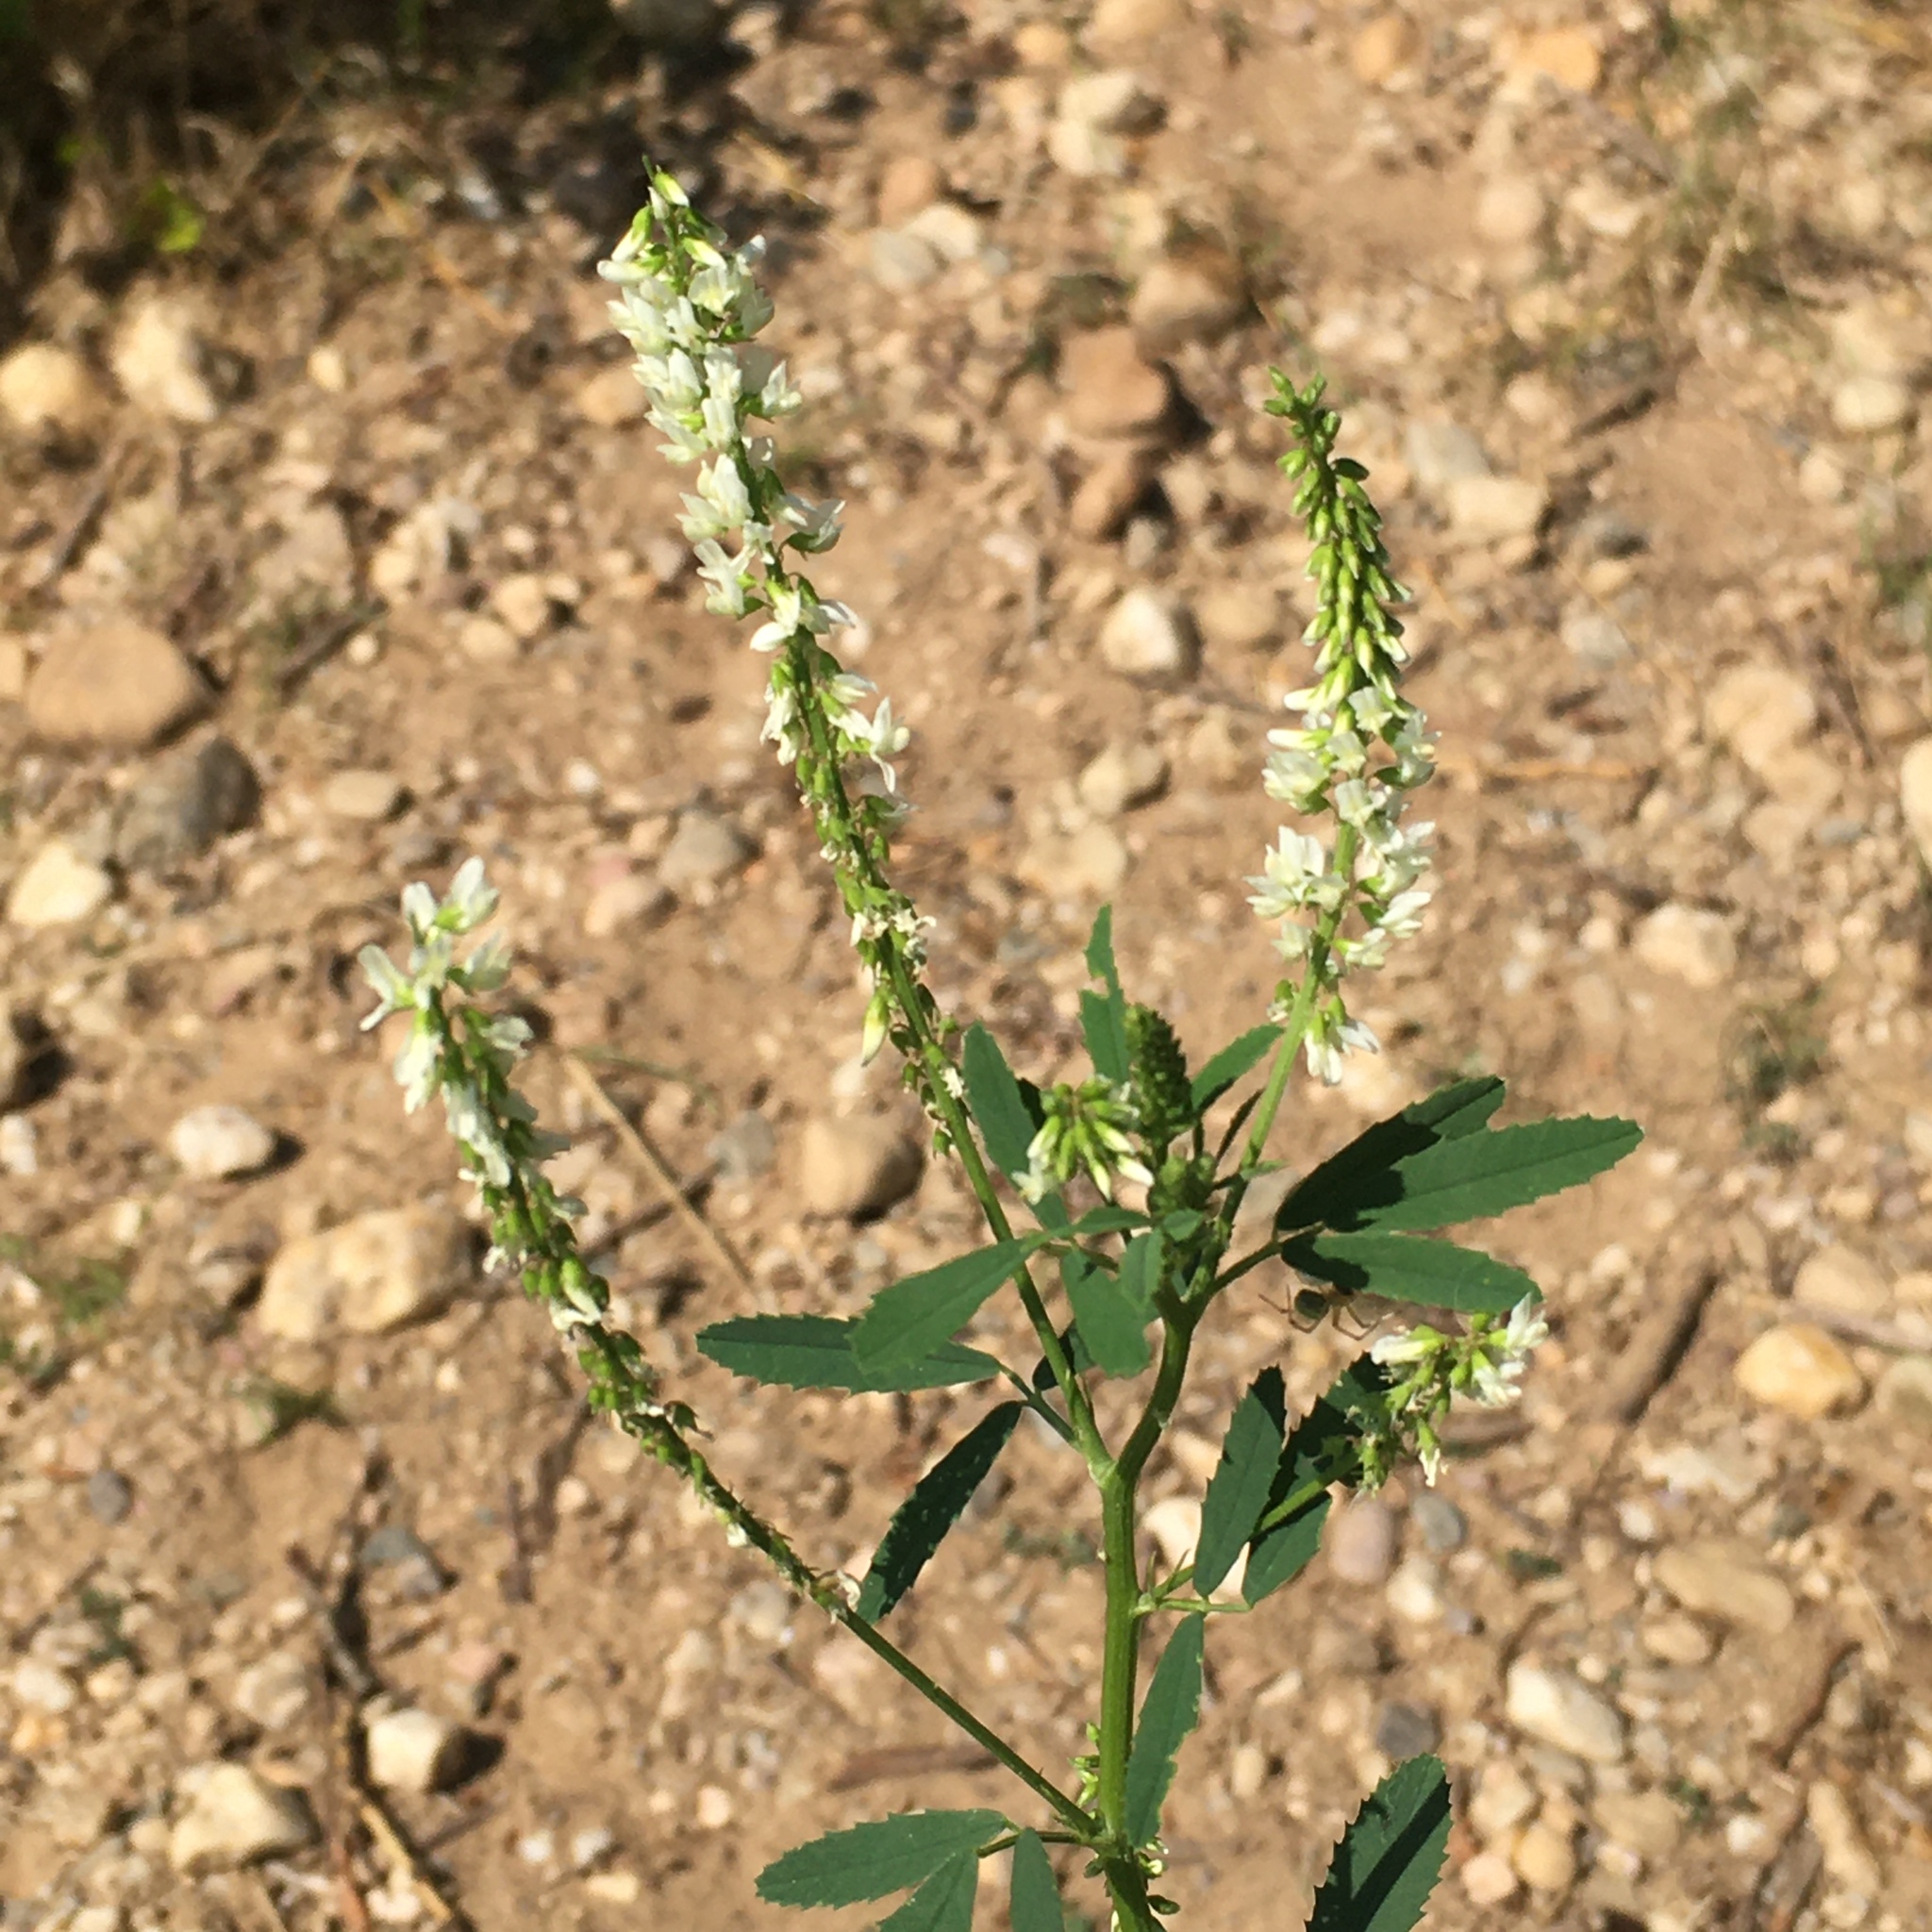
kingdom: Plantae
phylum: Tracheophyta
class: Magnoliopsida
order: Fabales
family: Fabaceae
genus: Melilotus
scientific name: Melilotus albus
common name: White melilot
